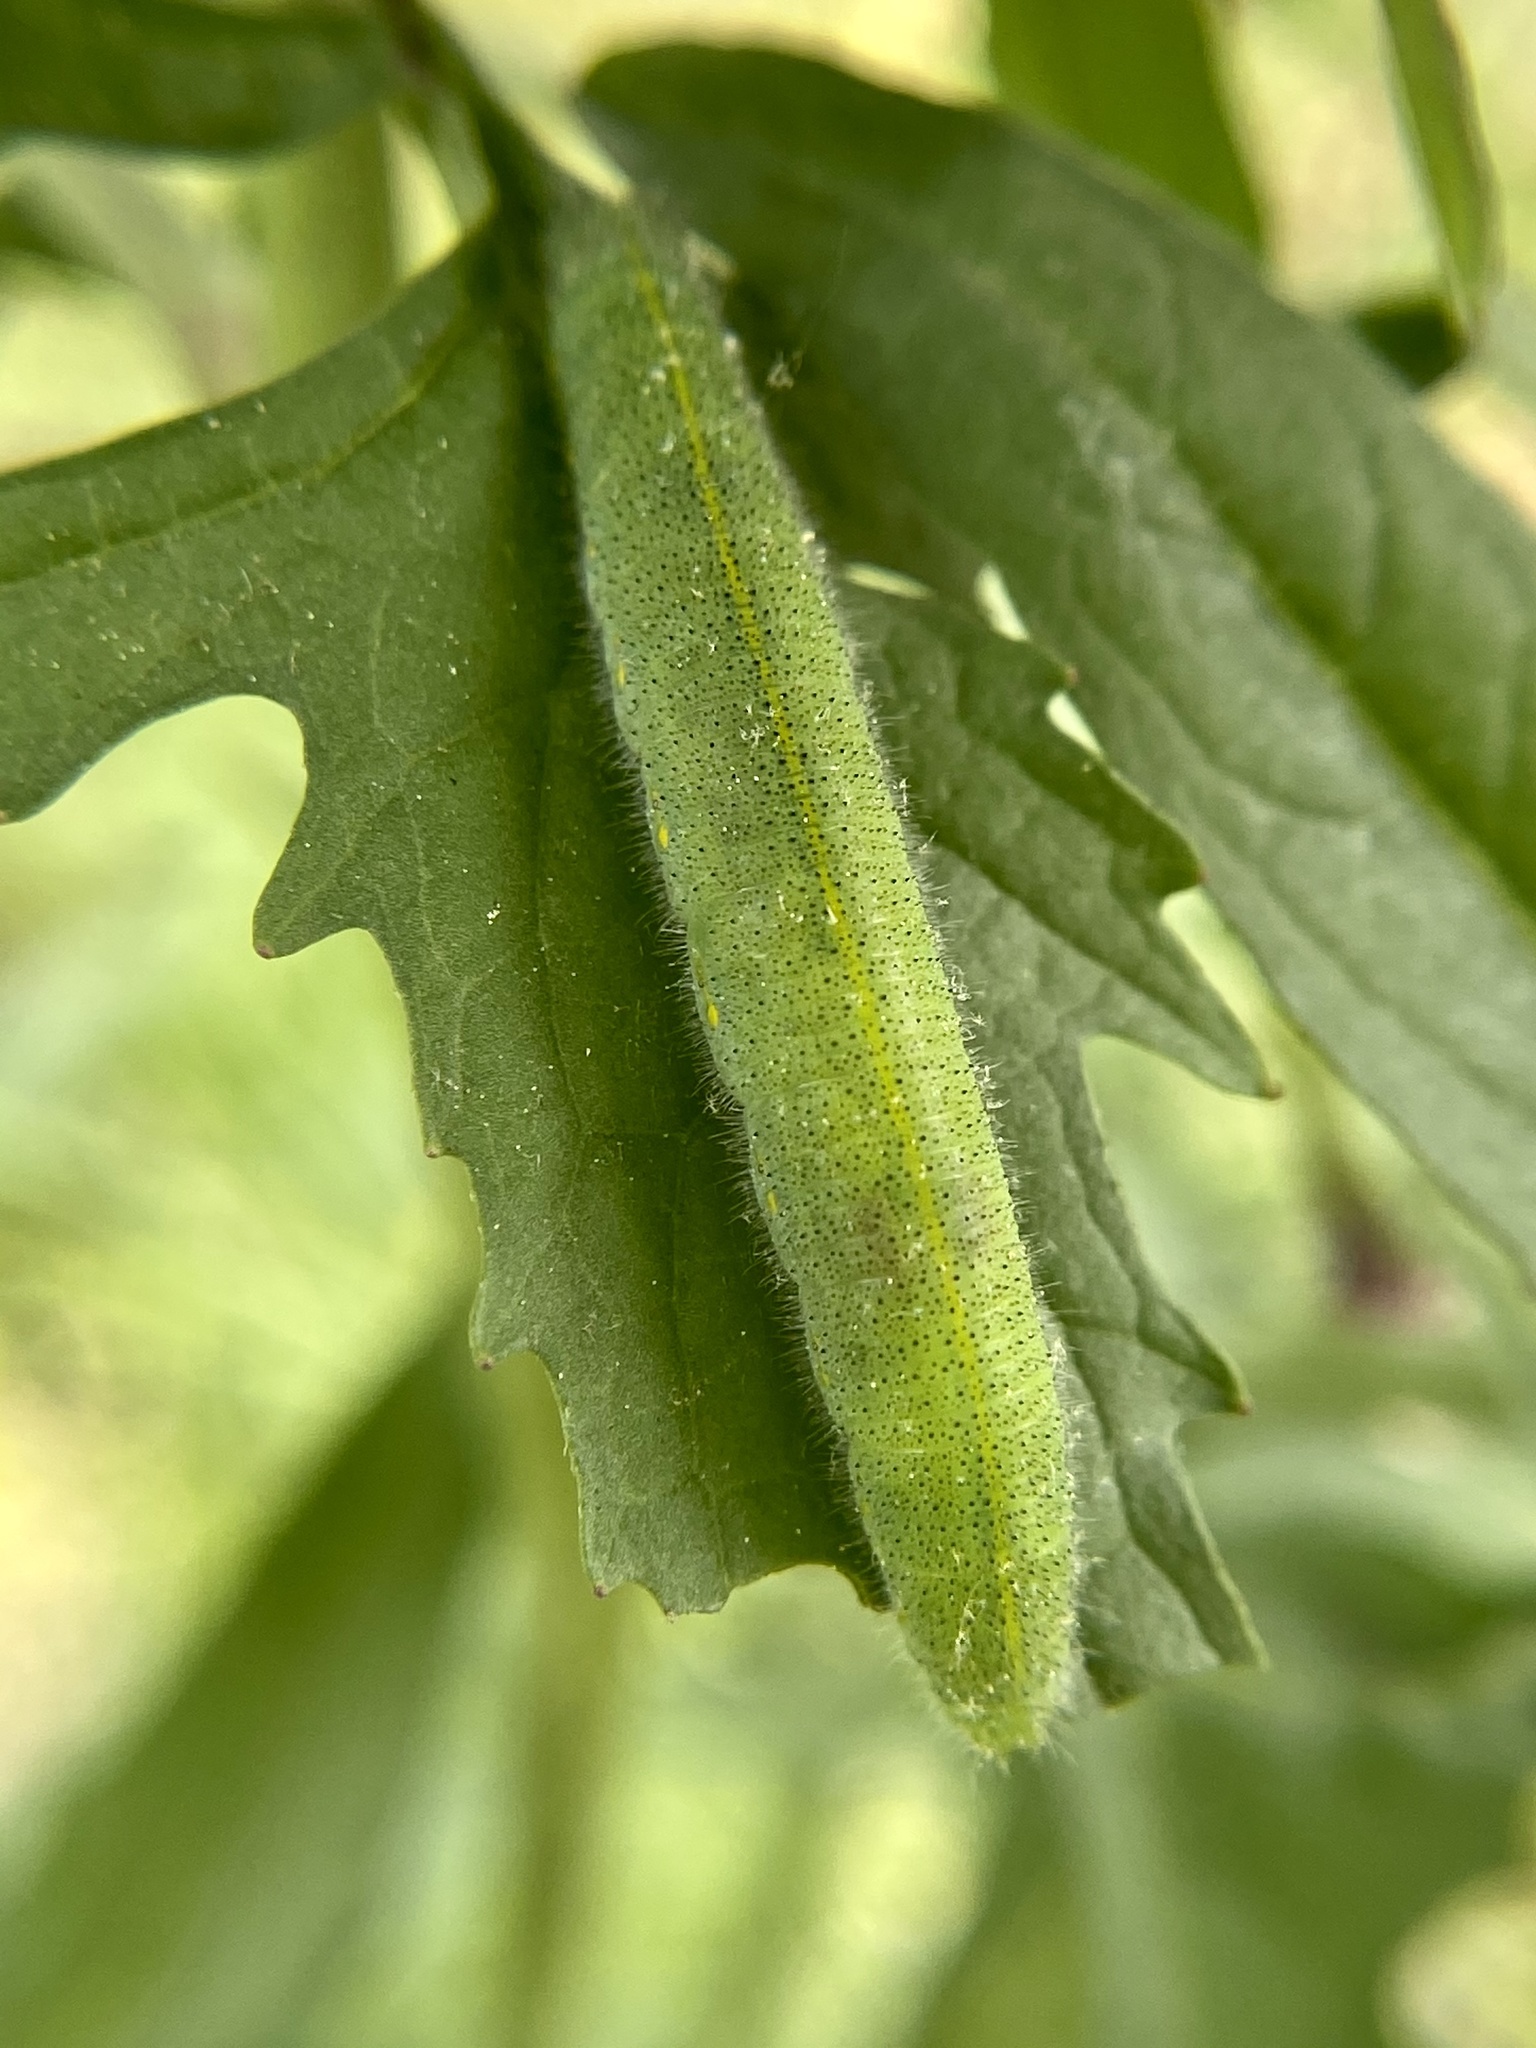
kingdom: Animalia
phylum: Arthropoda
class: Insecta
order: Lepidoptera
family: Pieridae
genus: Pieris
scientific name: Pieris rapae
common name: Small white
